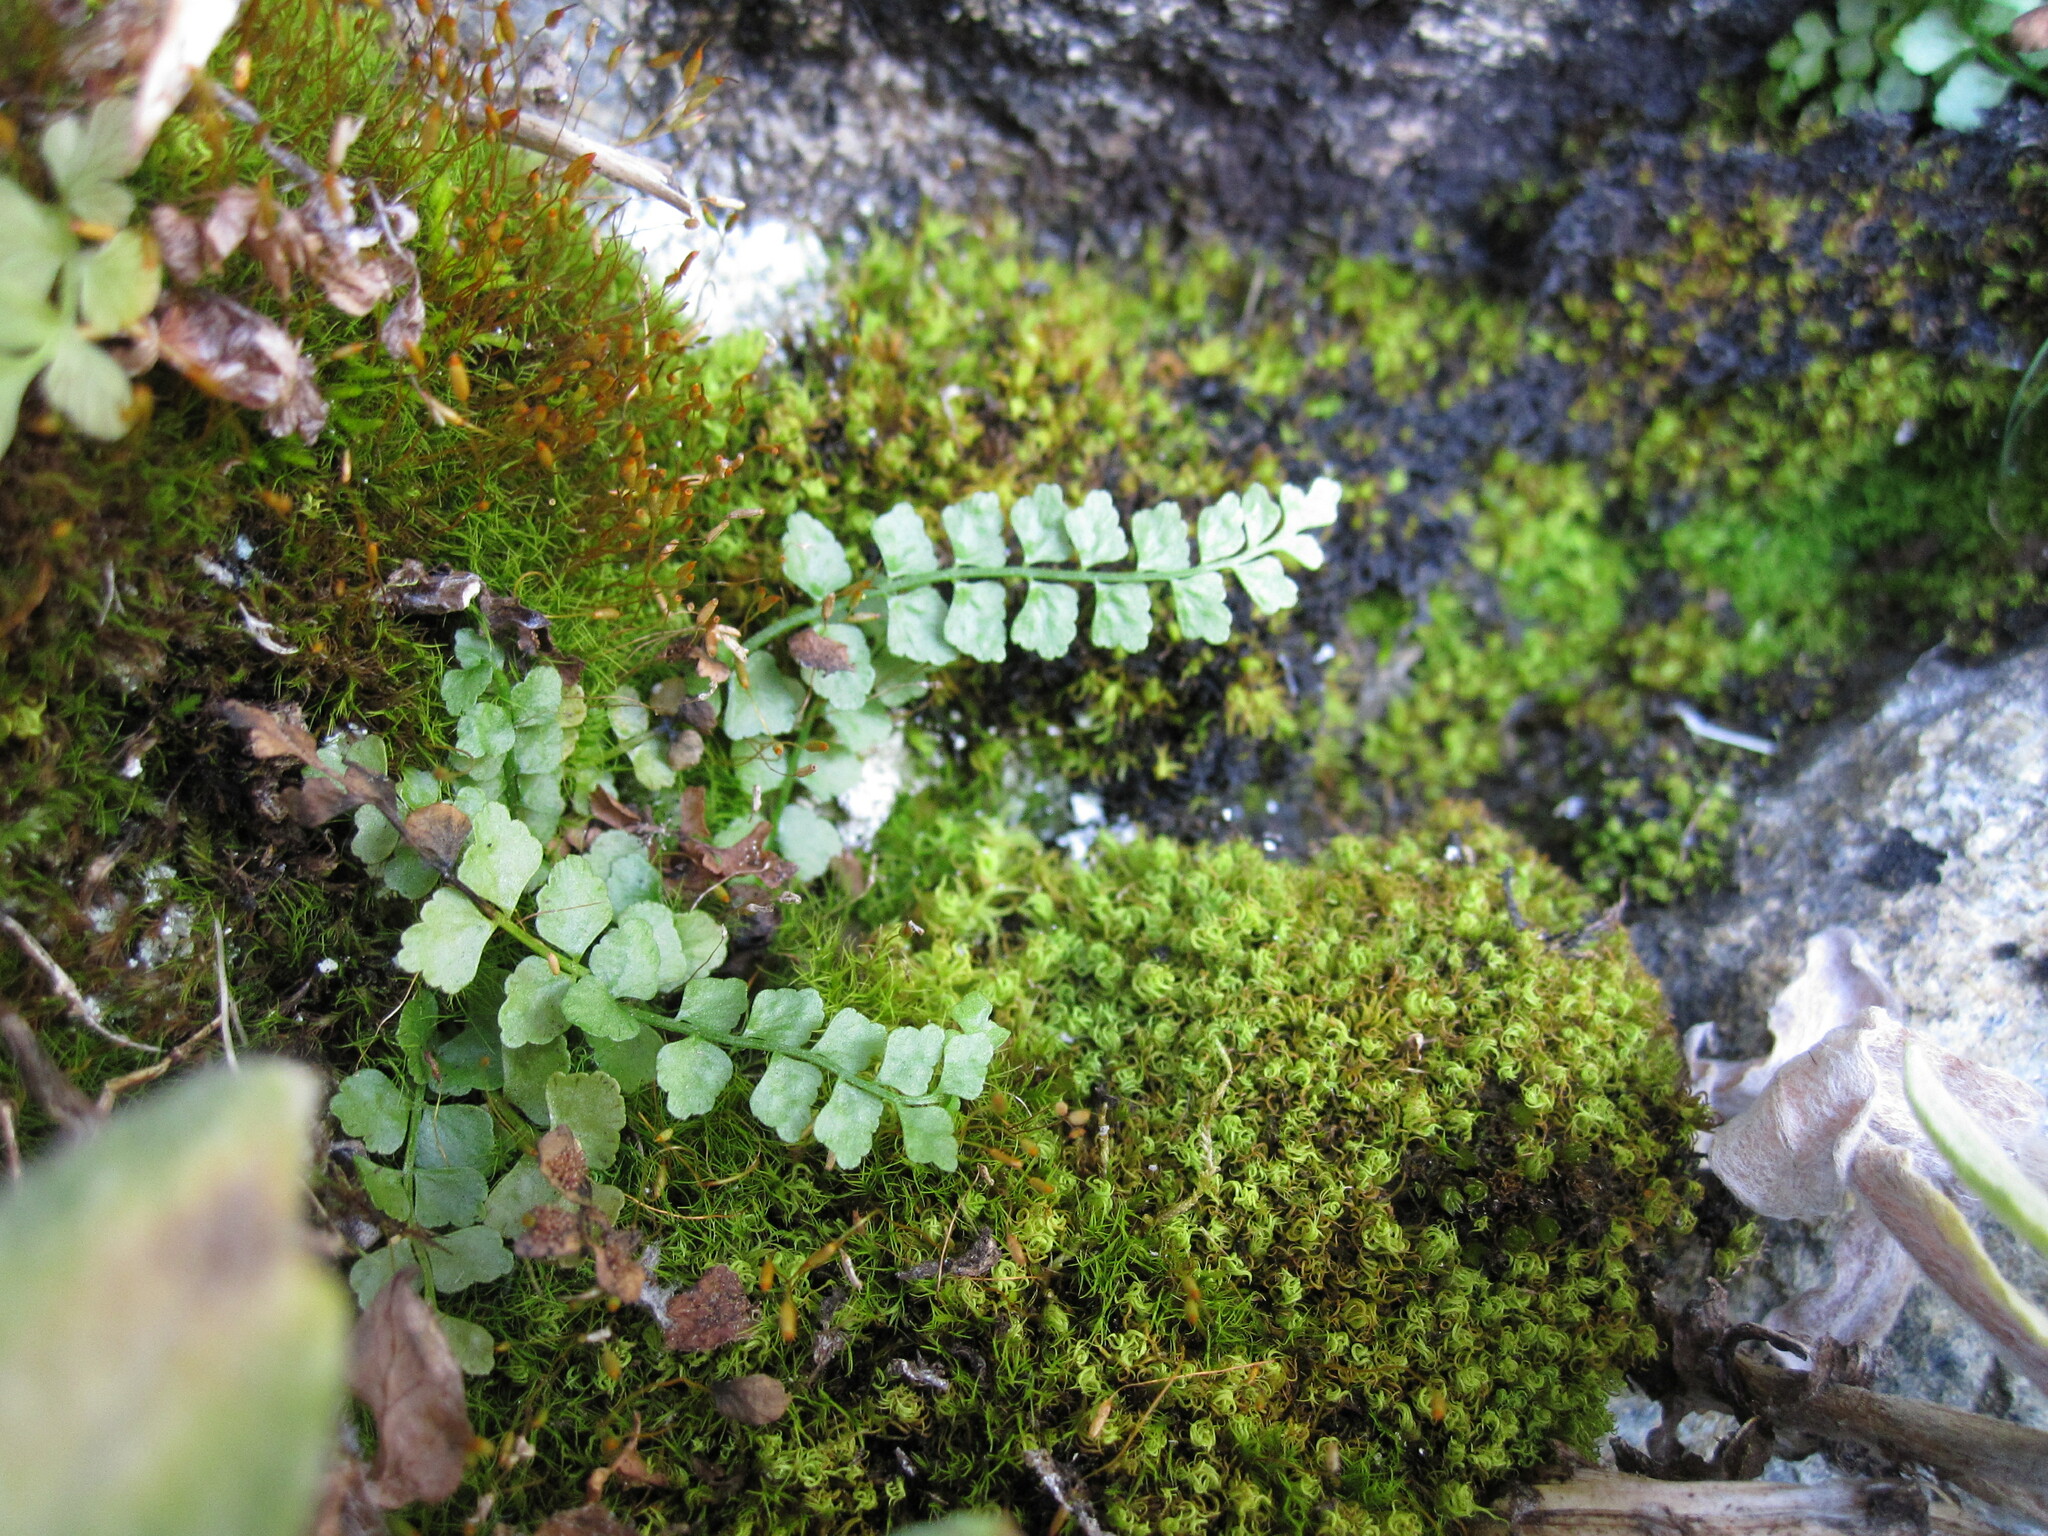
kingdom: Plantae
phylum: Tracheophyta
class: Polypodiopsida
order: Polypodiales
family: Aspleniaceae
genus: Asplenium
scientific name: Asplenium viride
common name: Green spleenwort
